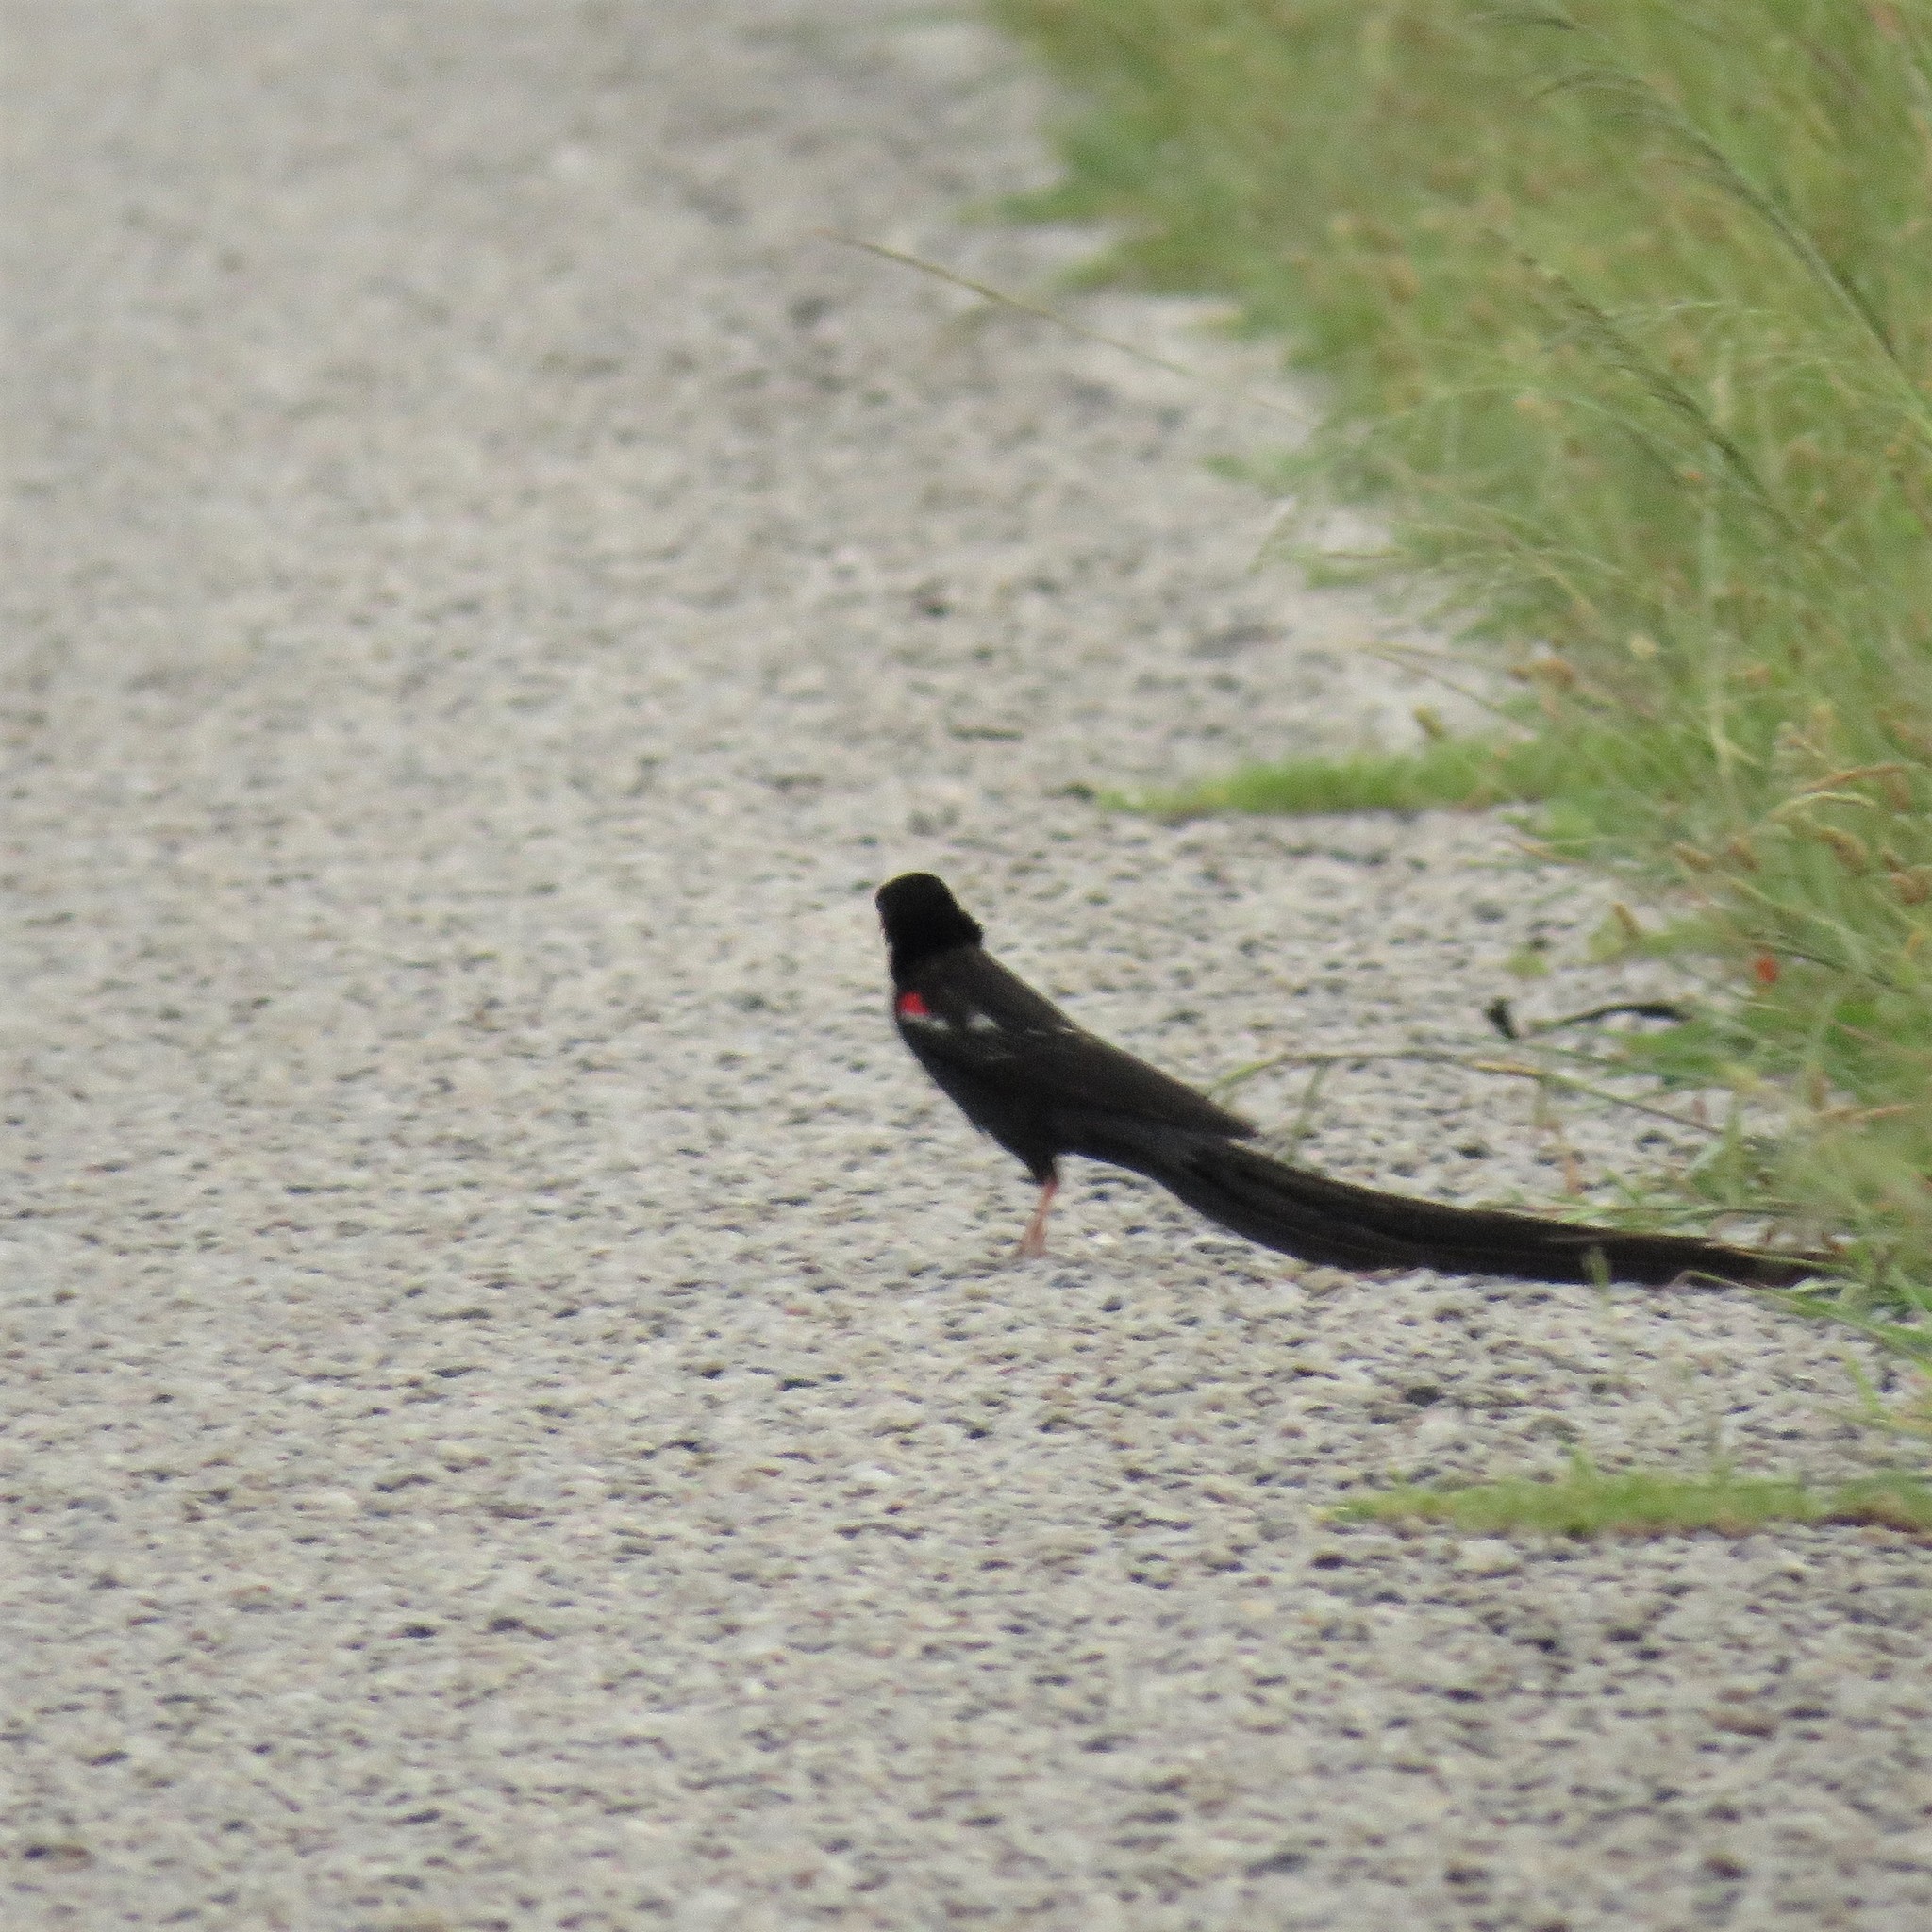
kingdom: Animalia
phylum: Chordata
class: Aves
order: Passeriformes
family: Ploceidae
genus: Euplectes
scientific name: Euplectes progne
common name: Long-tailed widowbird
